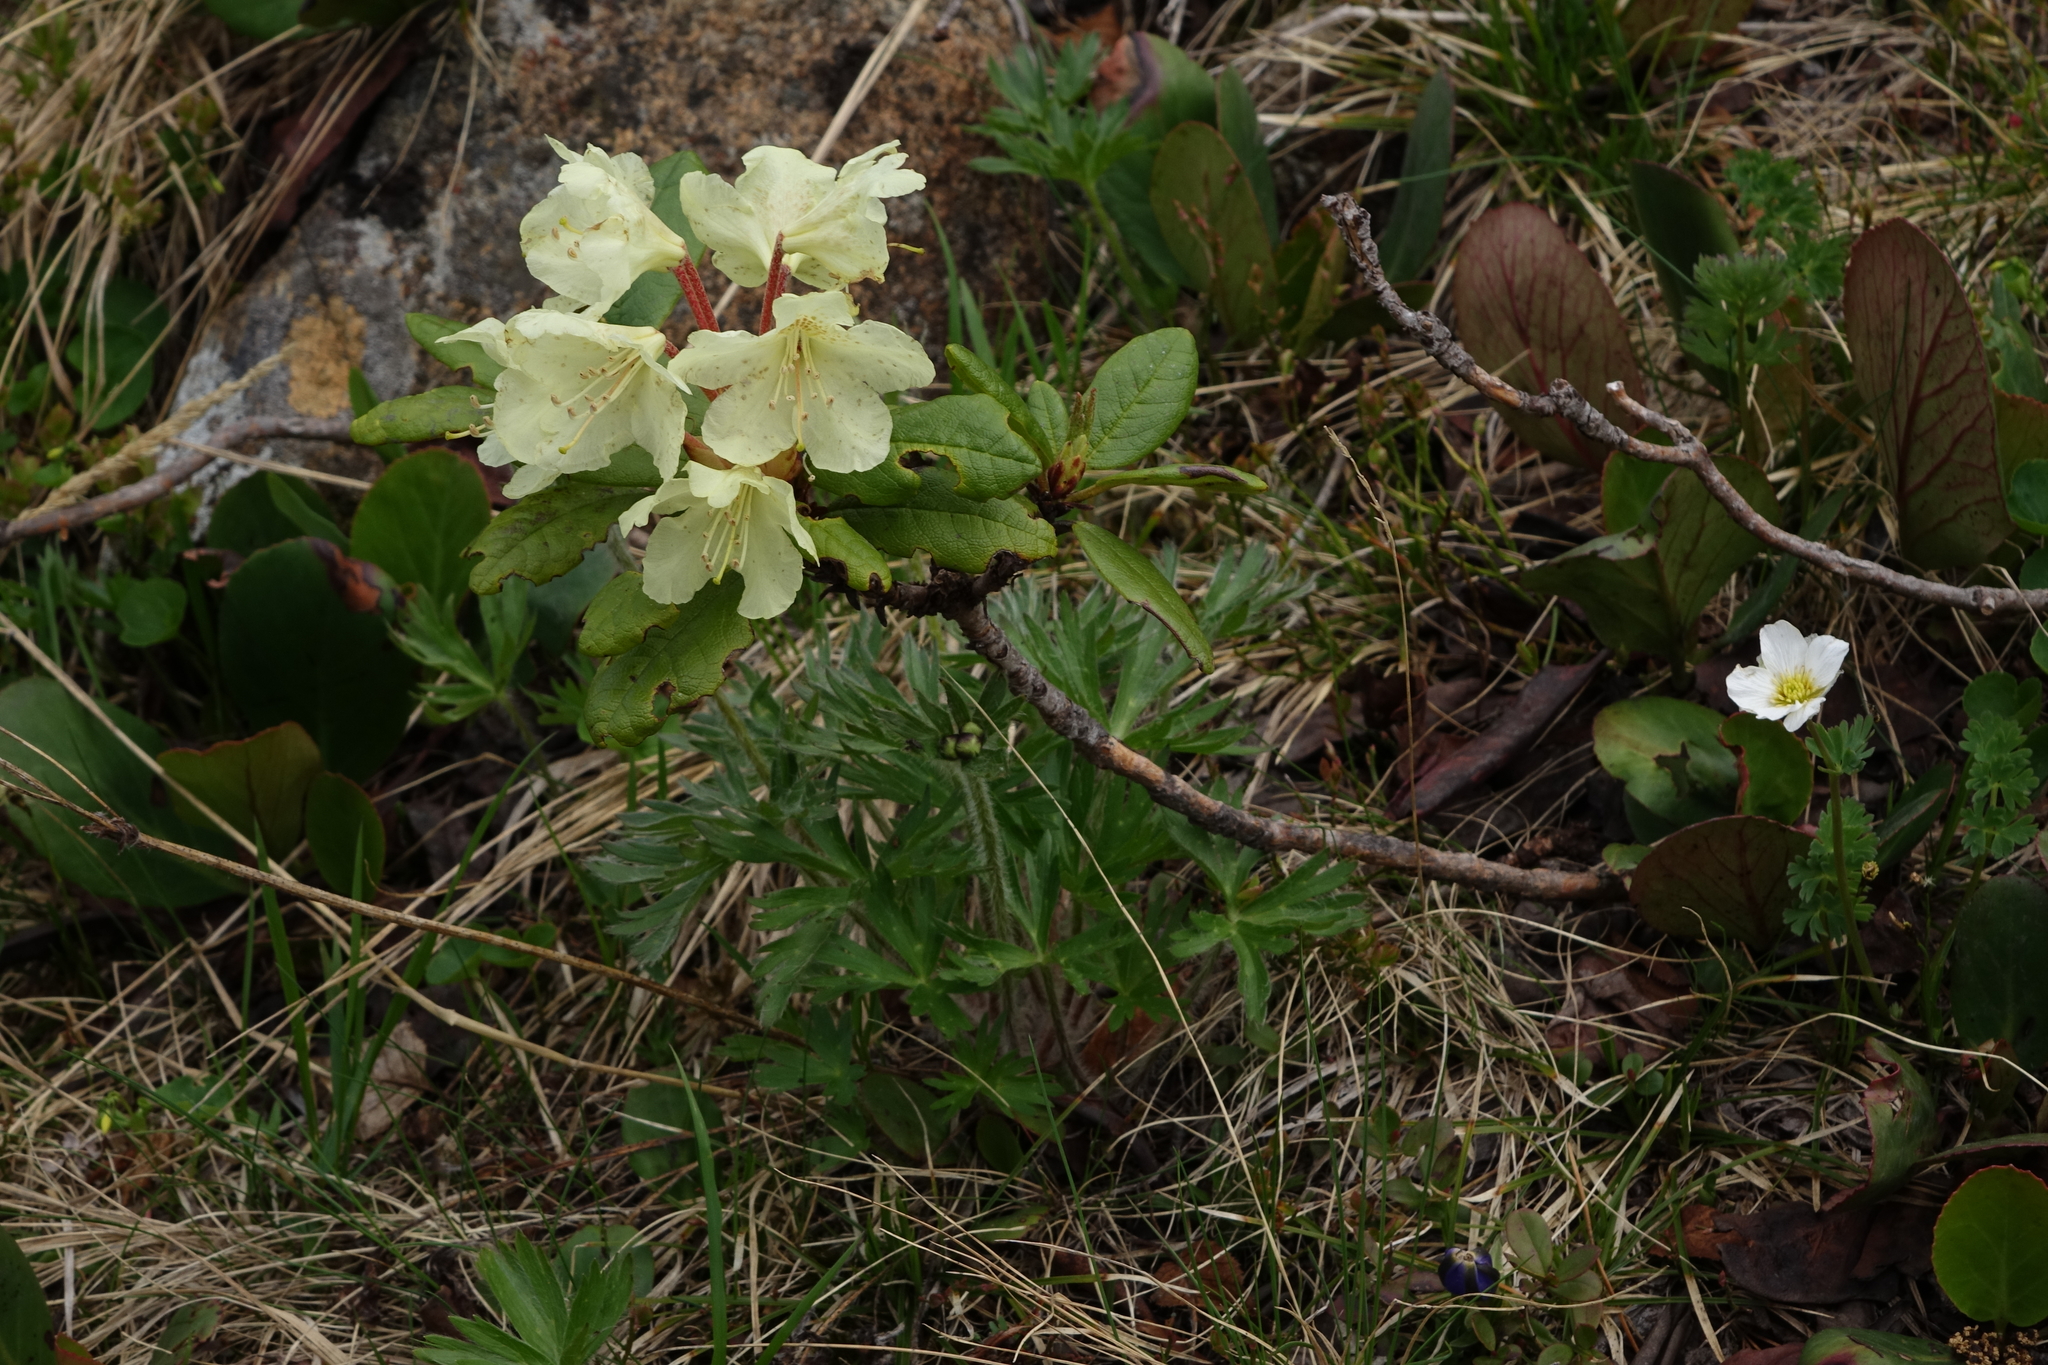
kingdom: Plantae
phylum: Tracheophyta
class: Magnoliopsida
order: Ericales
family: Ericaceae
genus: Rhododendron
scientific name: Rhododendron aureum
